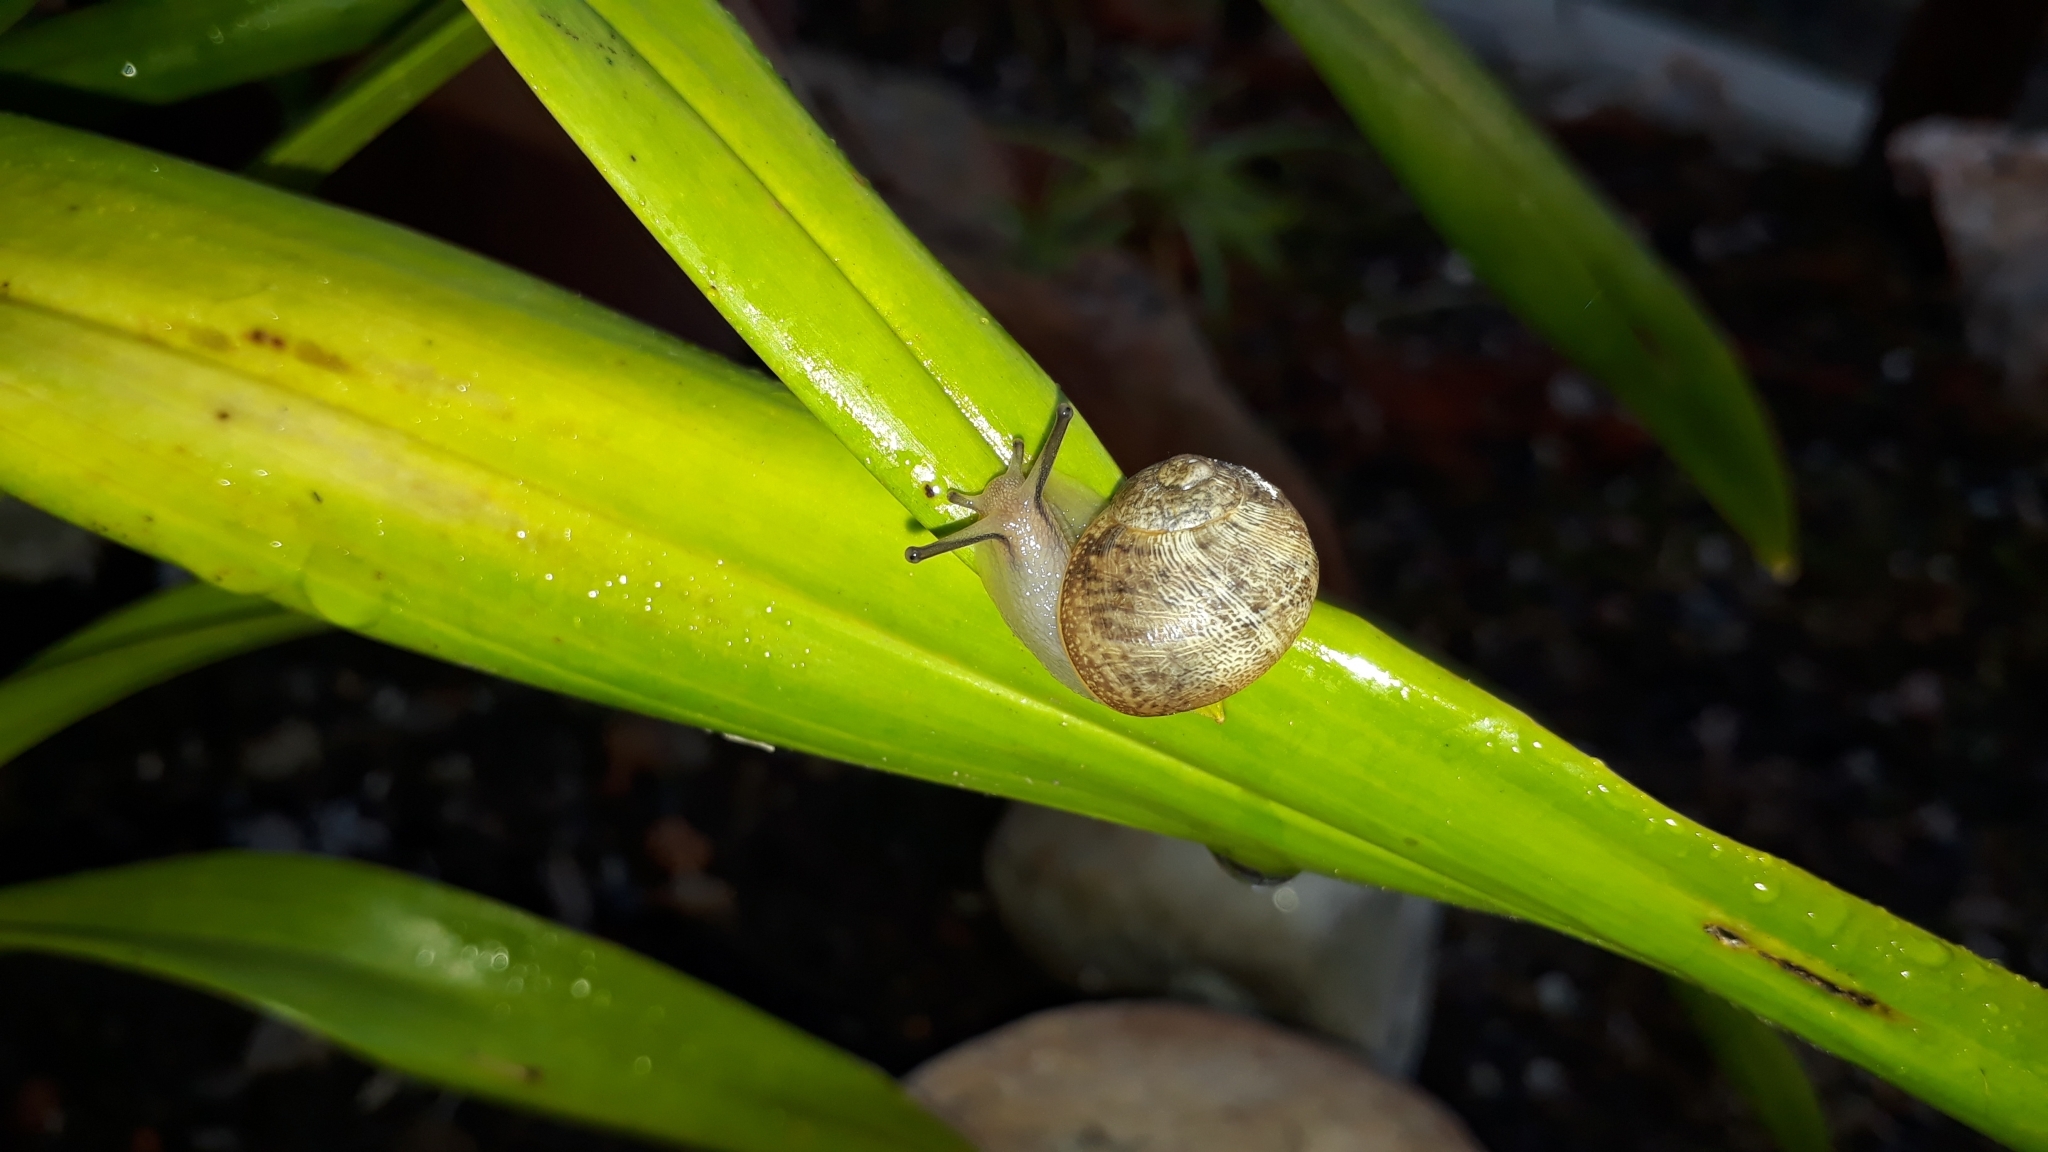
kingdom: Animalia
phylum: Mollusca
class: Gastropoda
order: Stylommatophora
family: Helicidae
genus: Cornu
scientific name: Cornu aspersum
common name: Brown garden snail
